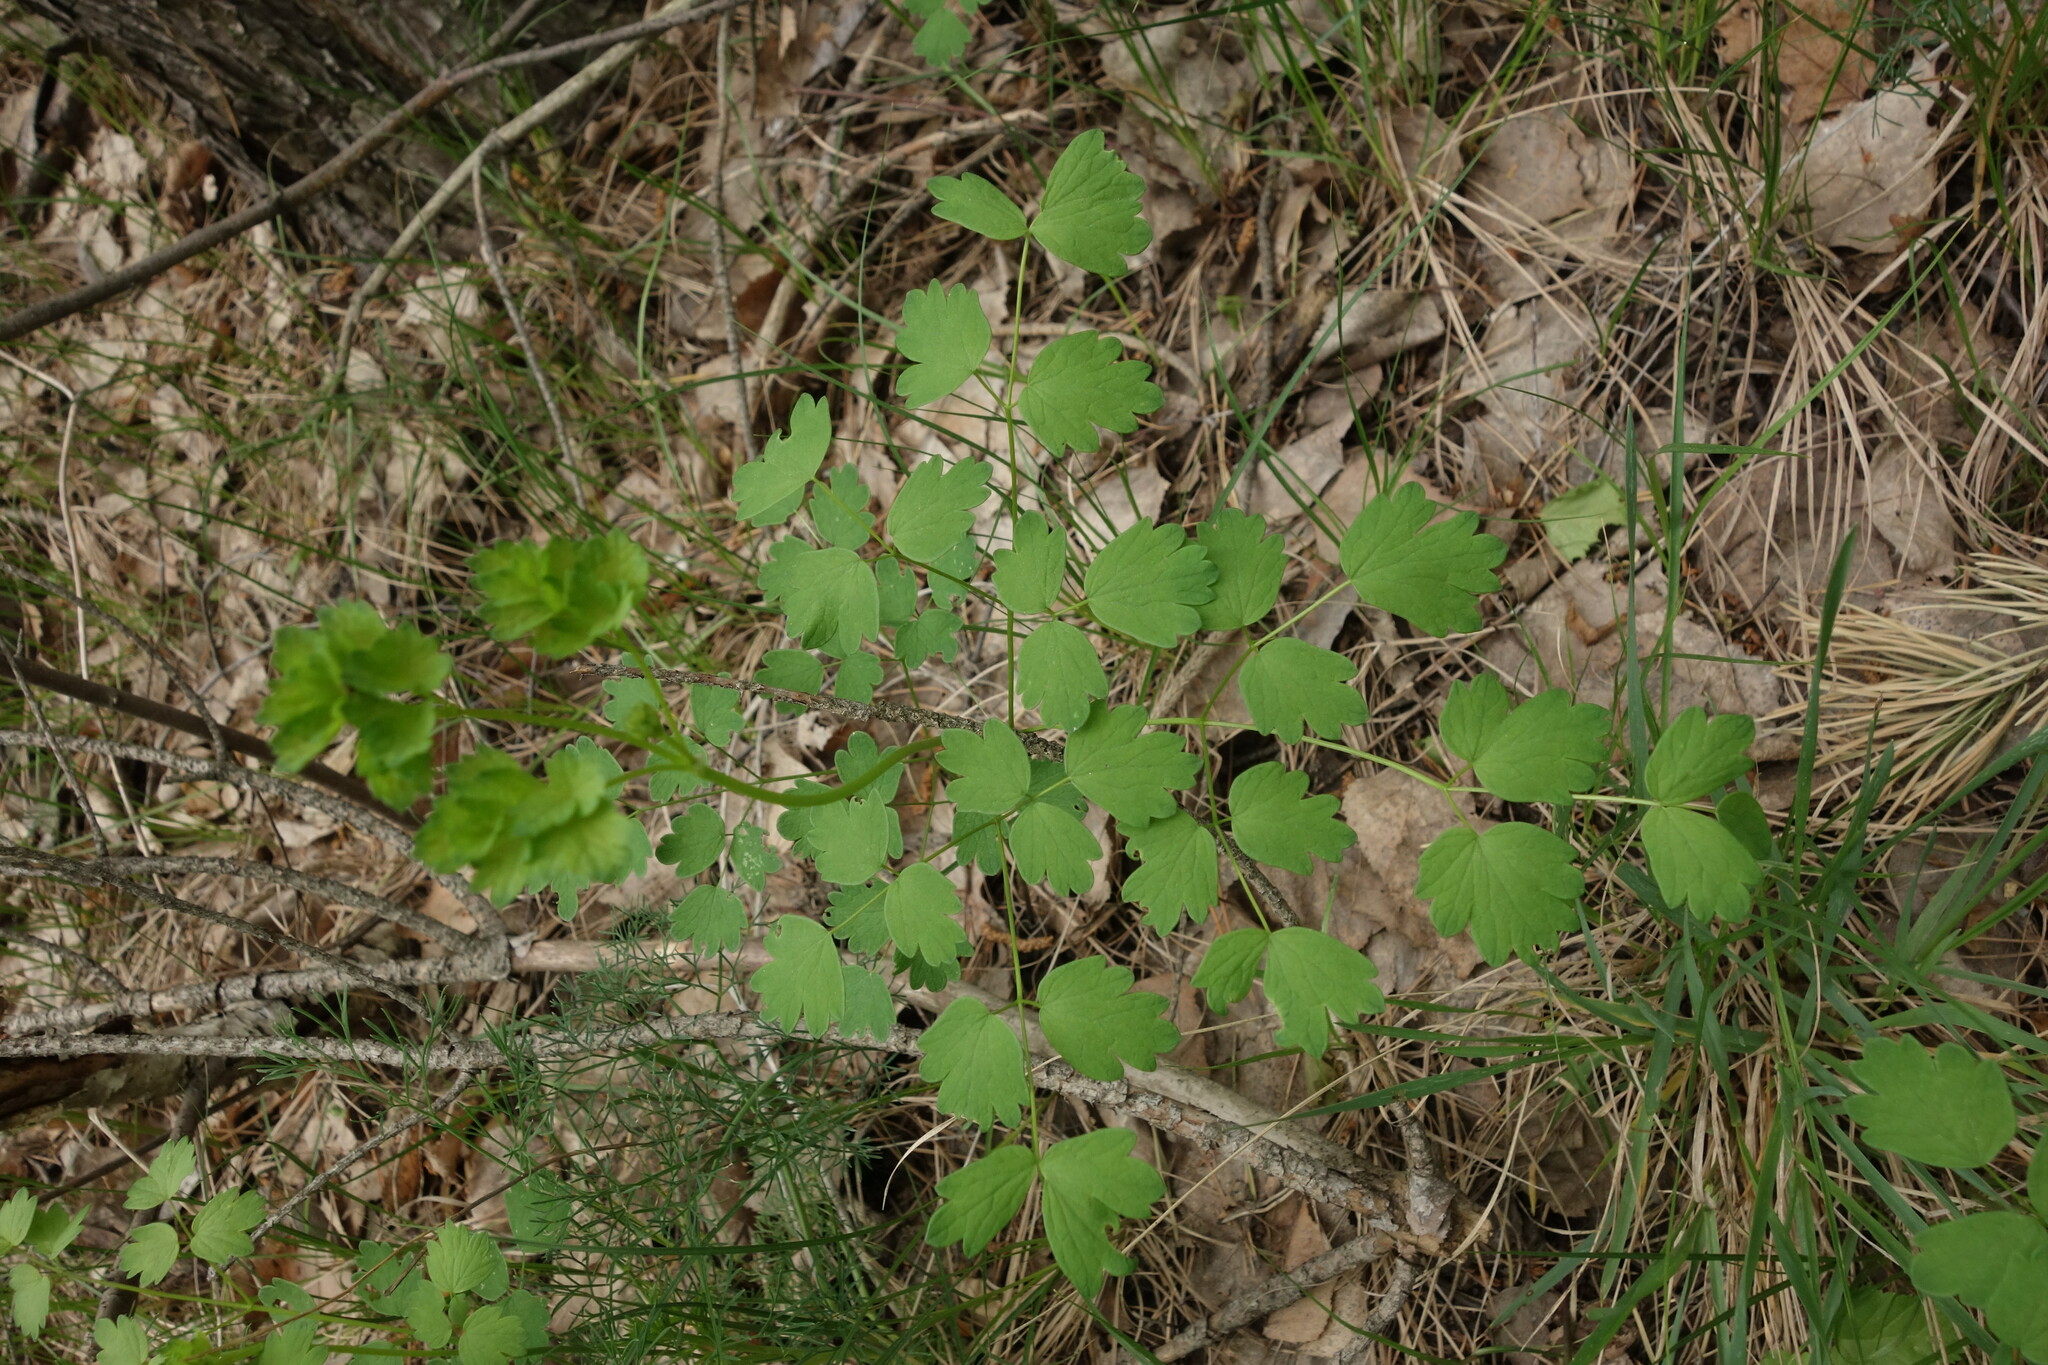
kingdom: Plantae
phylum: Tracheophyta
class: Magnoliopsida
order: Ranunculales
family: Ranunculaceae
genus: Thalictrum
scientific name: Thalictrum minus
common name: Lesser meadow-rue
